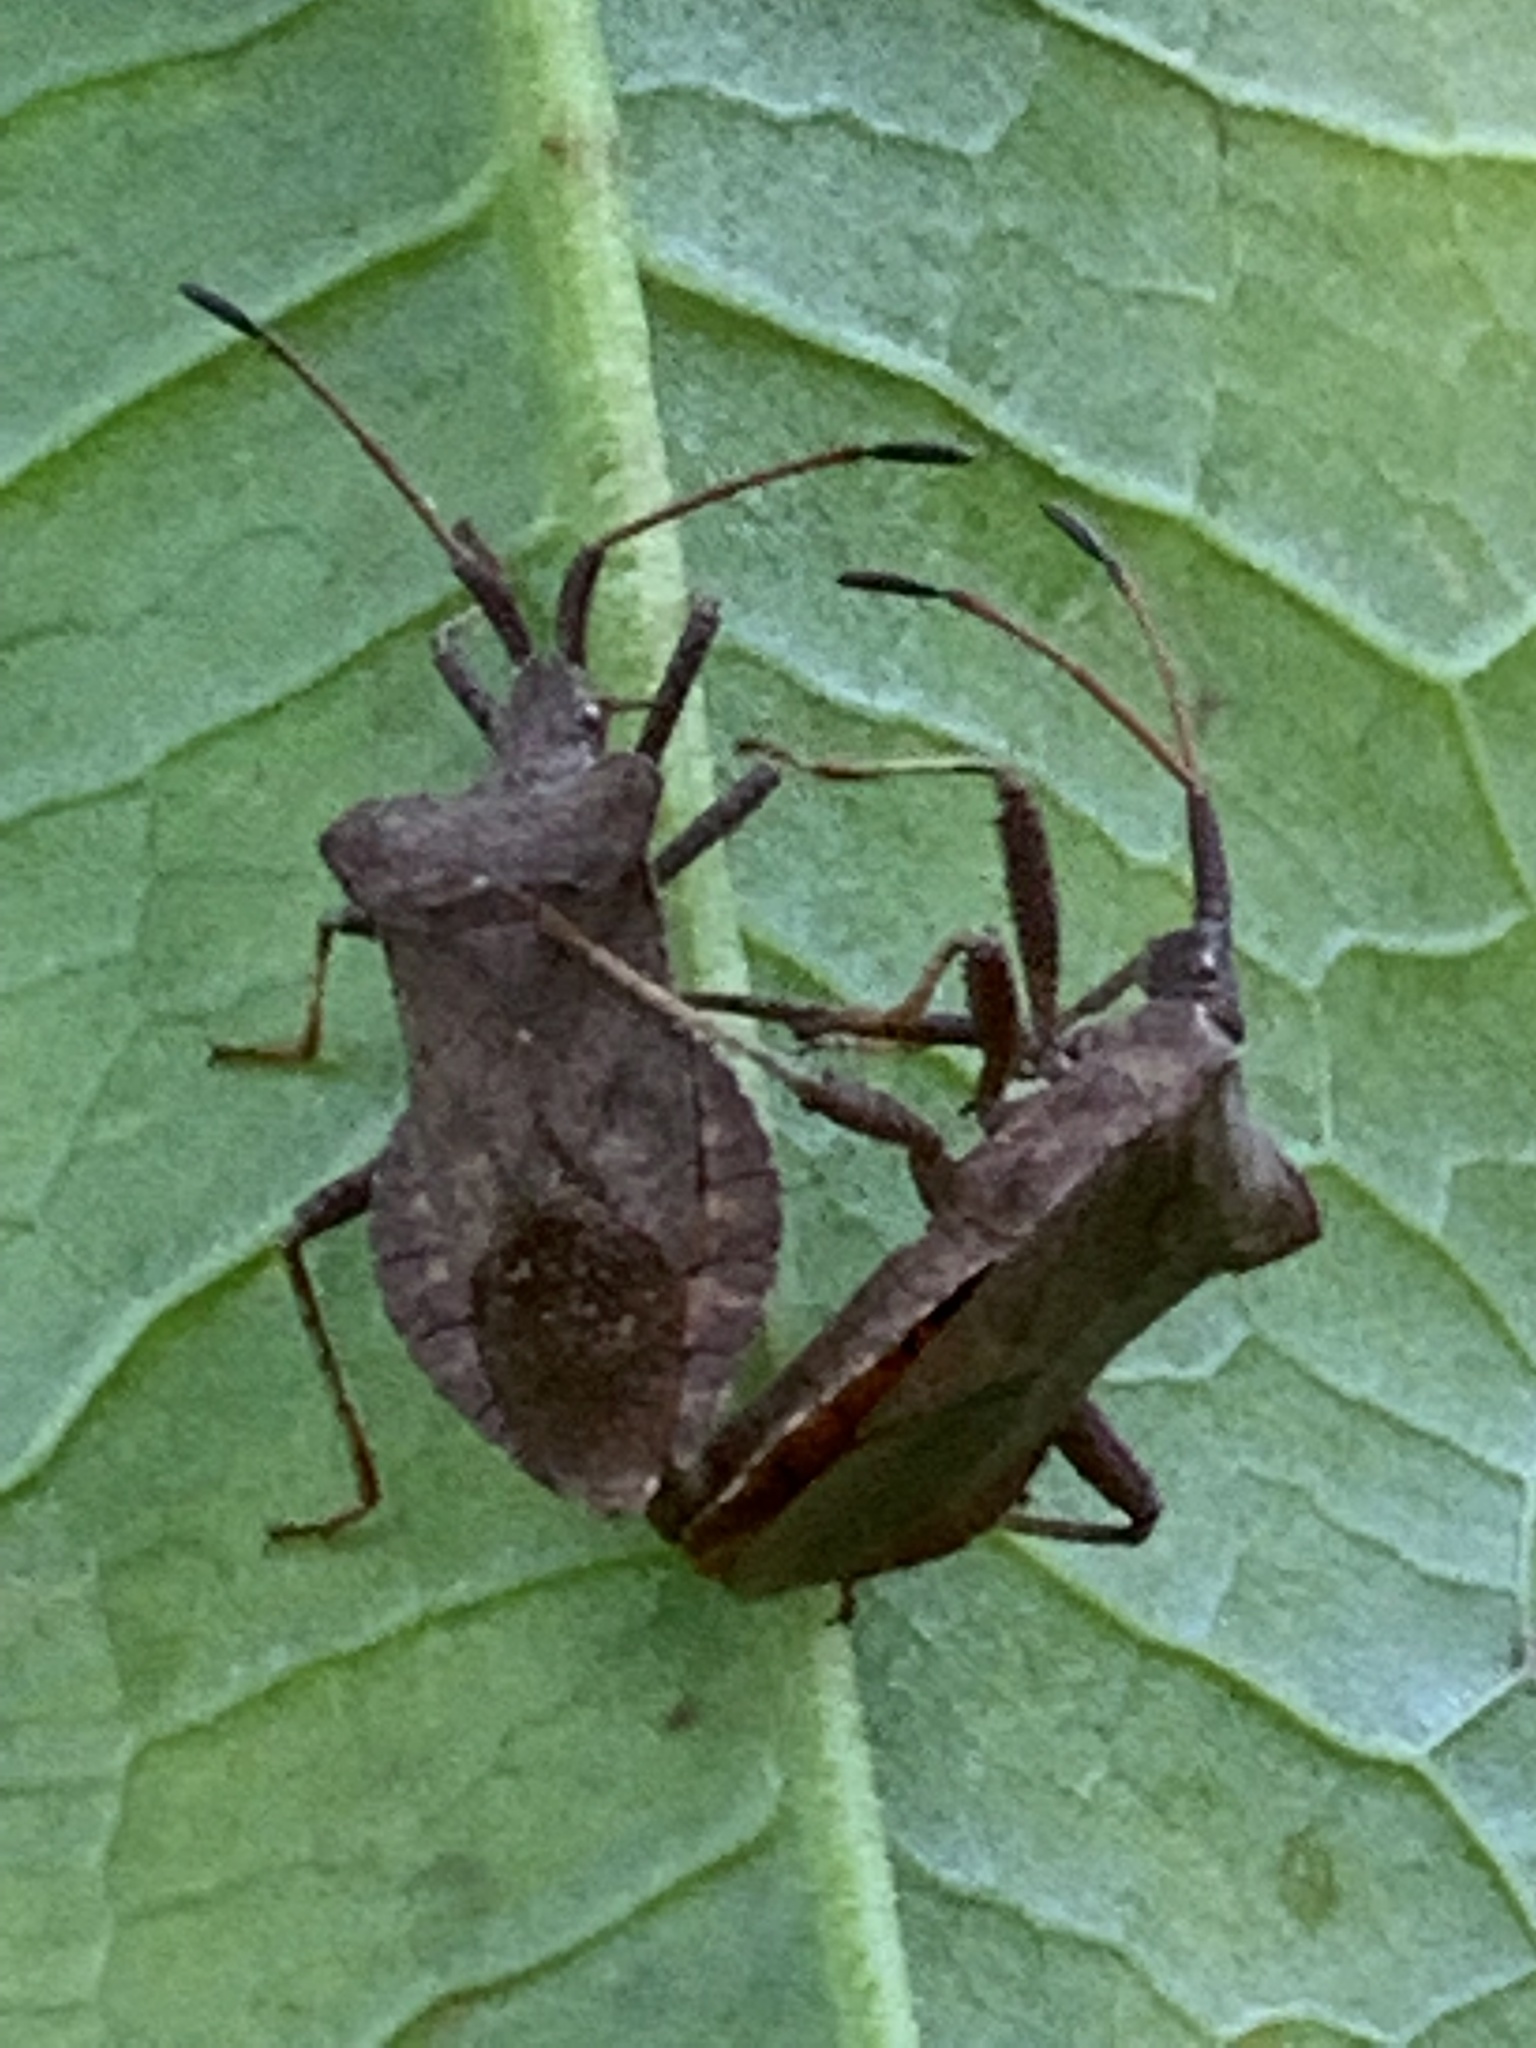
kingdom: Animalia
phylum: Arthropoda
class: Insecta
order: Hemiptera
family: Coreidae
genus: Coreus
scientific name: Coreus marginatus
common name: Dock bug
